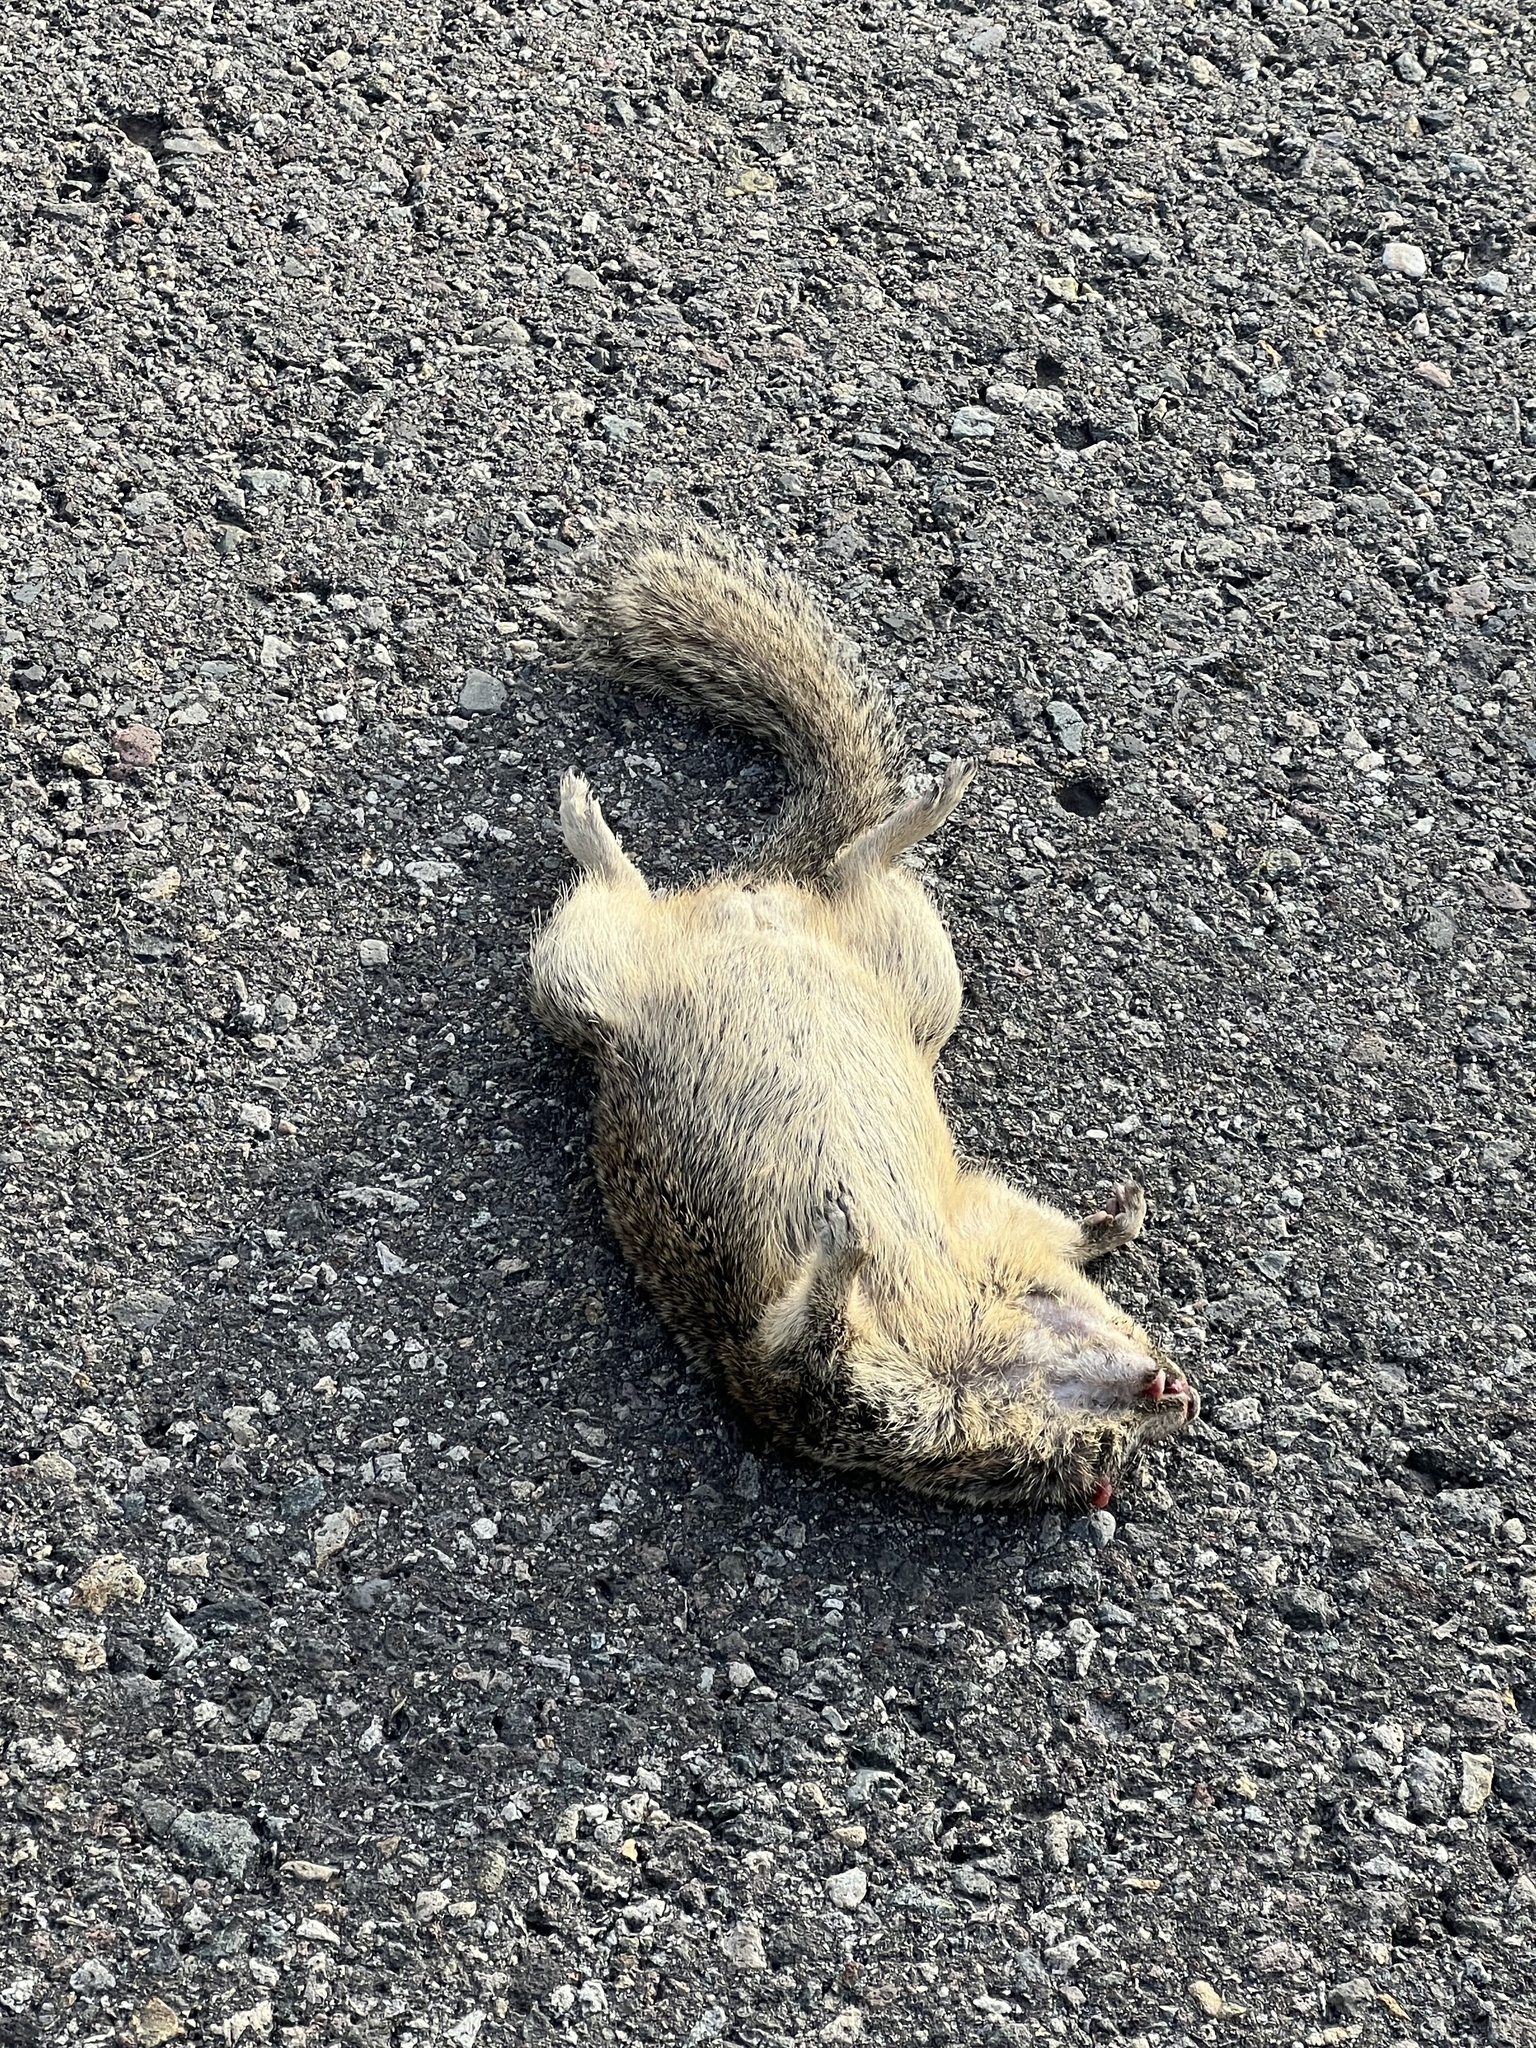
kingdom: Animalia
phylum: Chordata
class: Mammalia
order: Rodentia
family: Sciuridae
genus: Otospermophilus
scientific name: Otospermophilus beecheyi
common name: California ground squirrel
